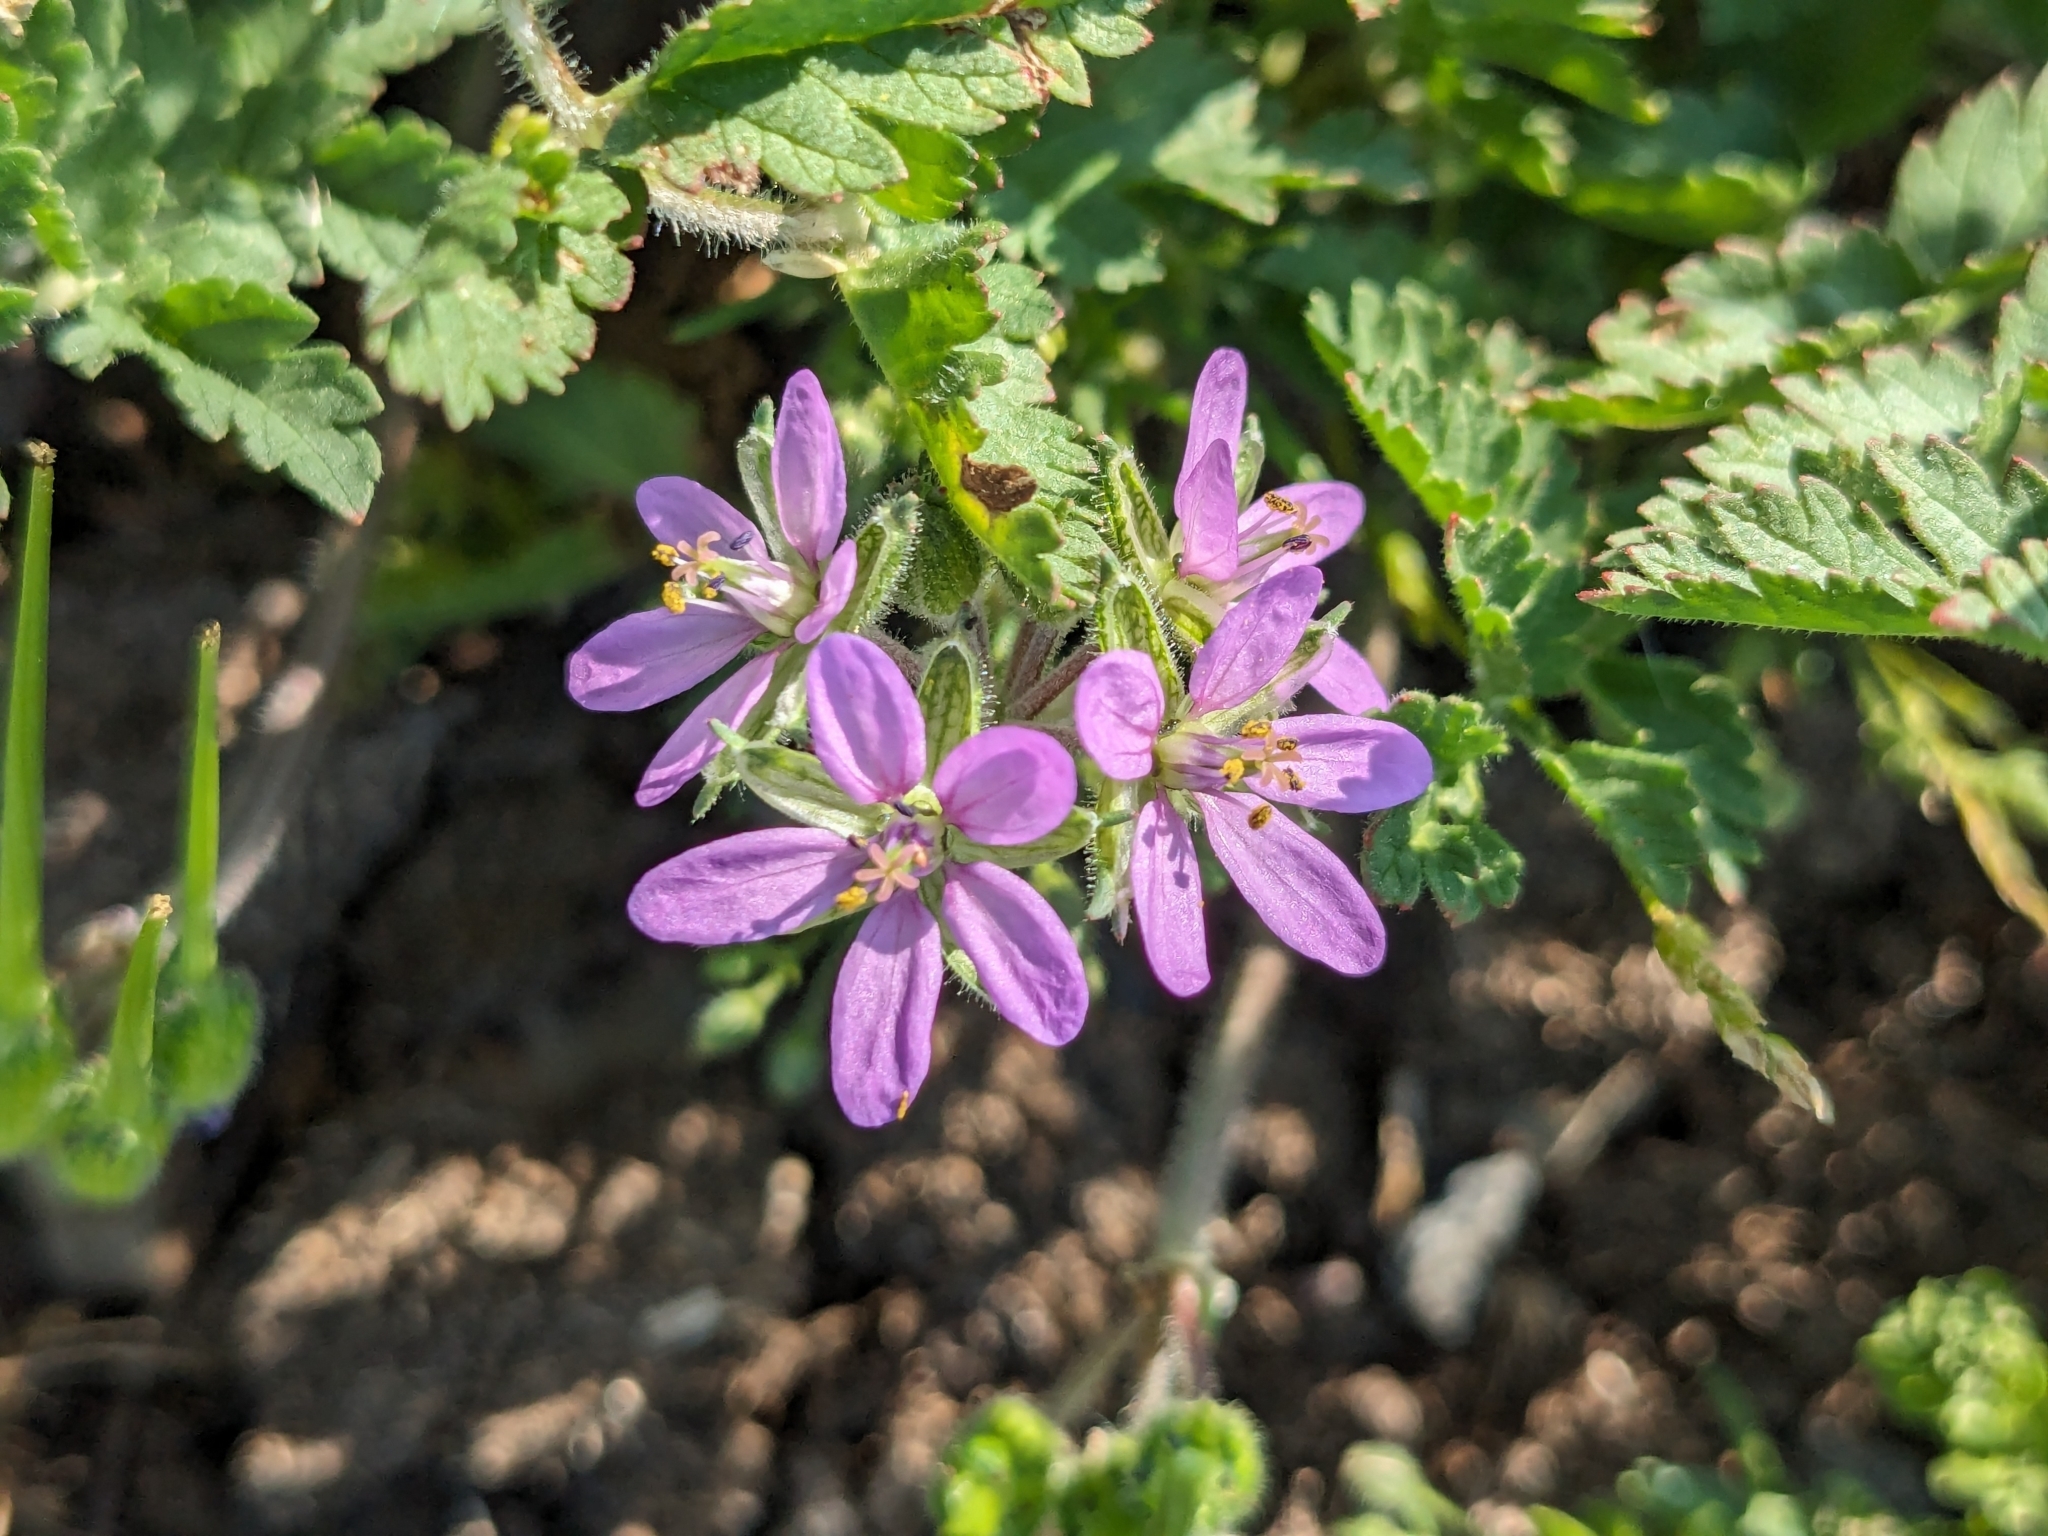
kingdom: Plantae
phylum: Tracheophyta
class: Magnoliopsida
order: Geraniales
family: Geraniaceae
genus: Erodium
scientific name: Erodium moschatum
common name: Musk stork's-bill
